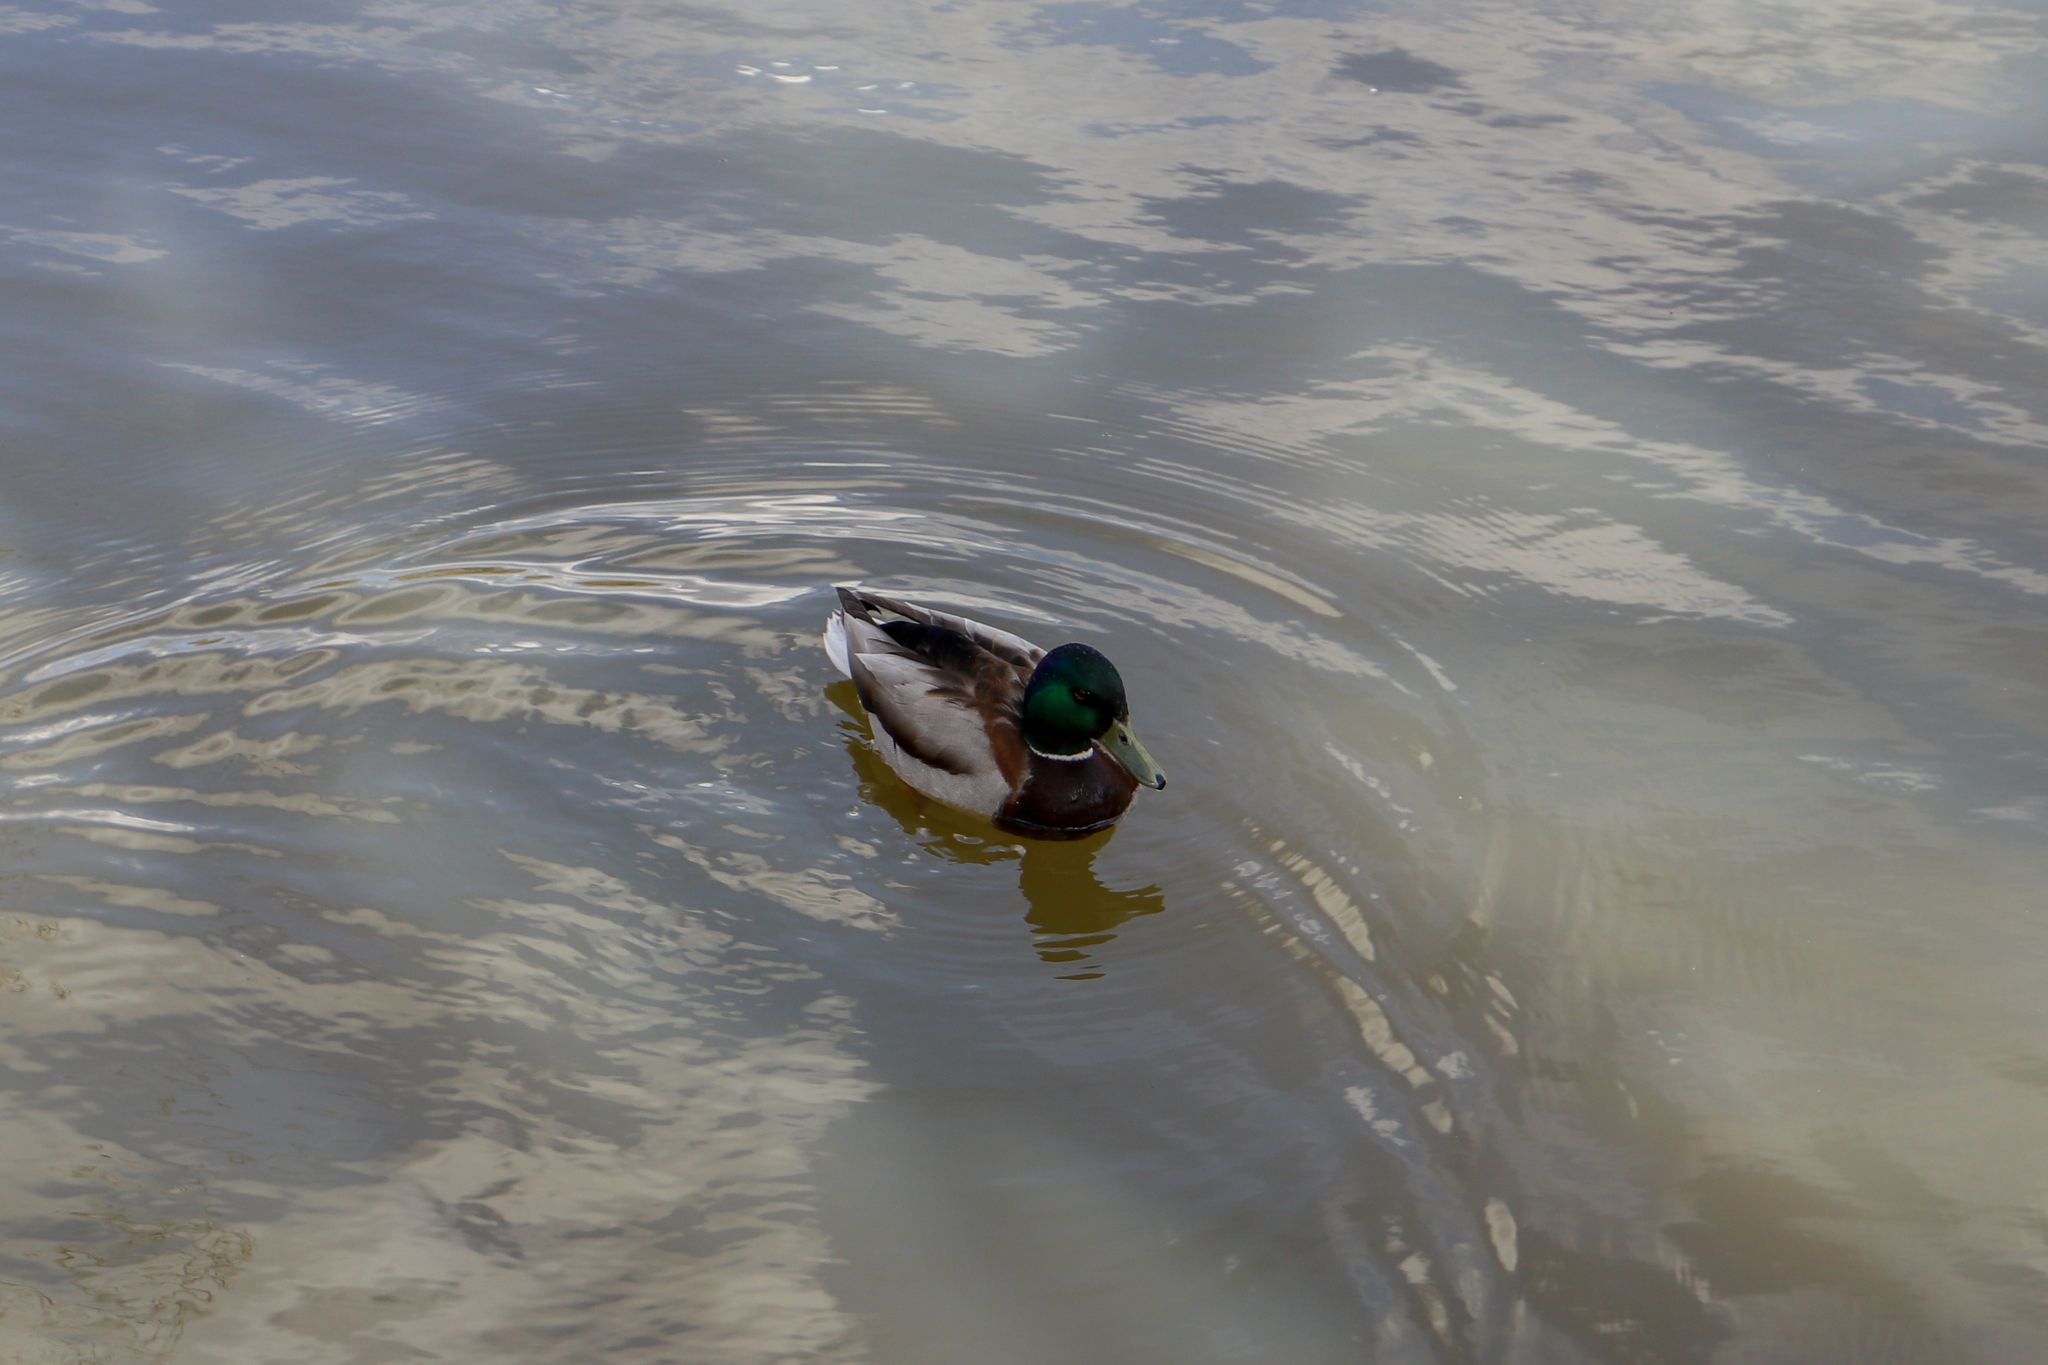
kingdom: Animalia
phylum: Chordata
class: Aves
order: Anseriformes
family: Anatidae
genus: Anas
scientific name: Anas platyrhynchos
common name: Mallard
